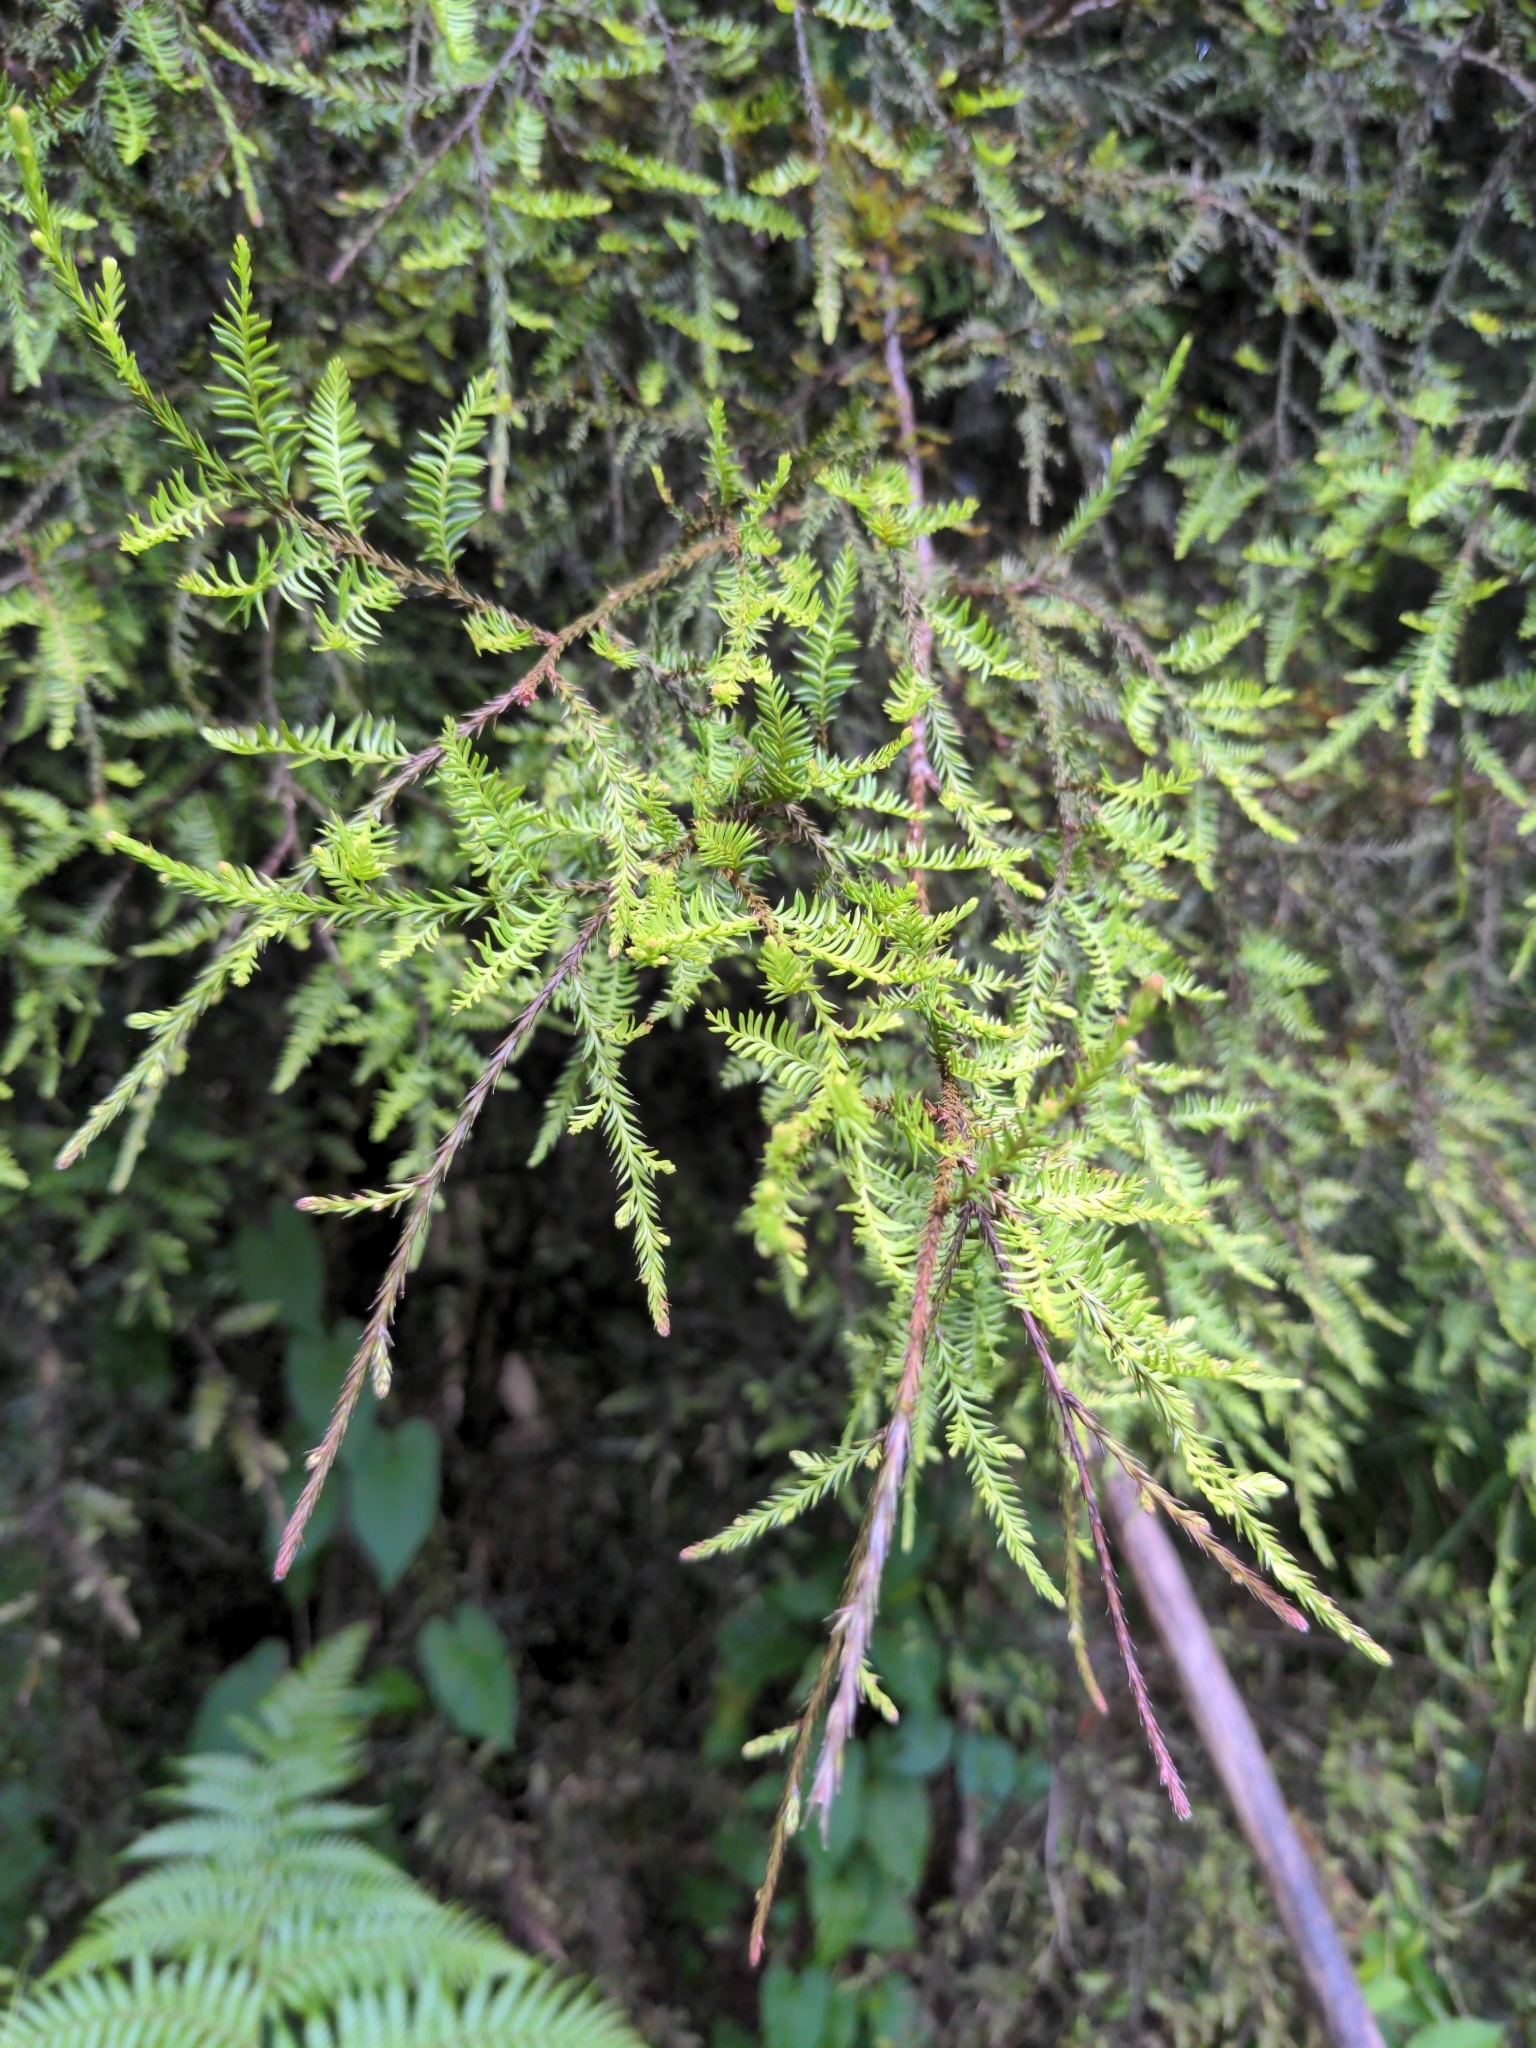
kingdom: Plantae
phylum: Tracheophyta
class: Pinopsida
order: Pinales
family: Podocarpaceae
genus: Dacrycarpus
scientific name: Dacrycarpus dacrydioides
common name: White pine
